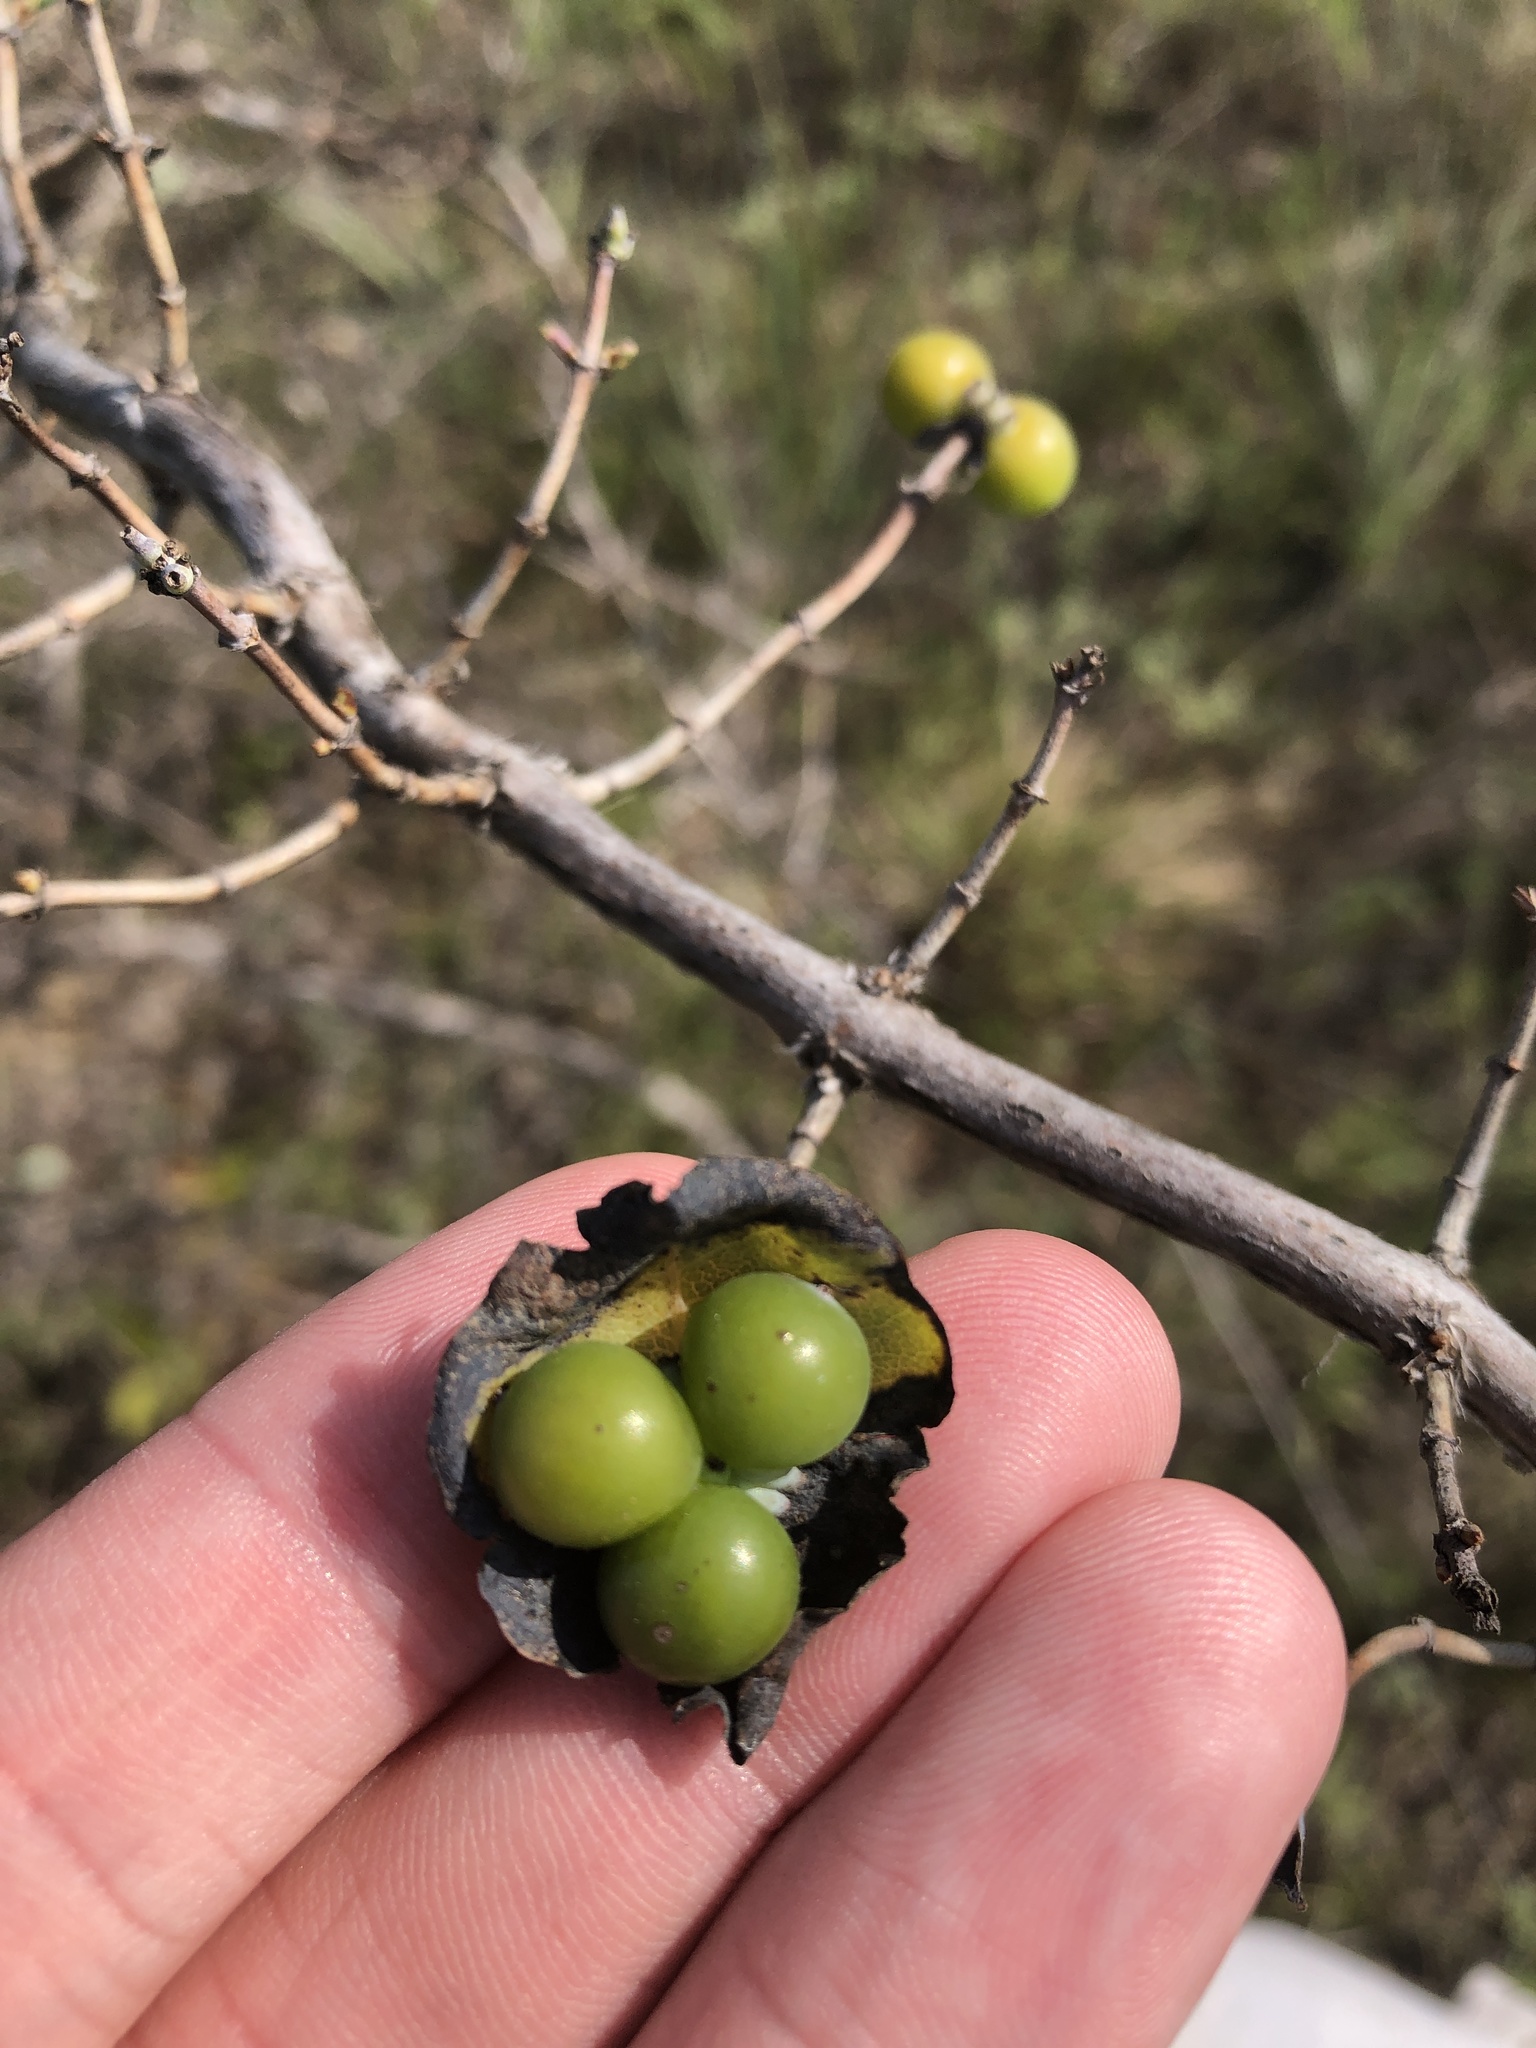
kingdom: Plantae
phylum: Tracheophyta
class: Magnoliopsida
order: Dipsacales
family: Caprifoliaceae
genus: Lonicera
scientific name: Lonicera albiflora
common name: White honeysuckle
